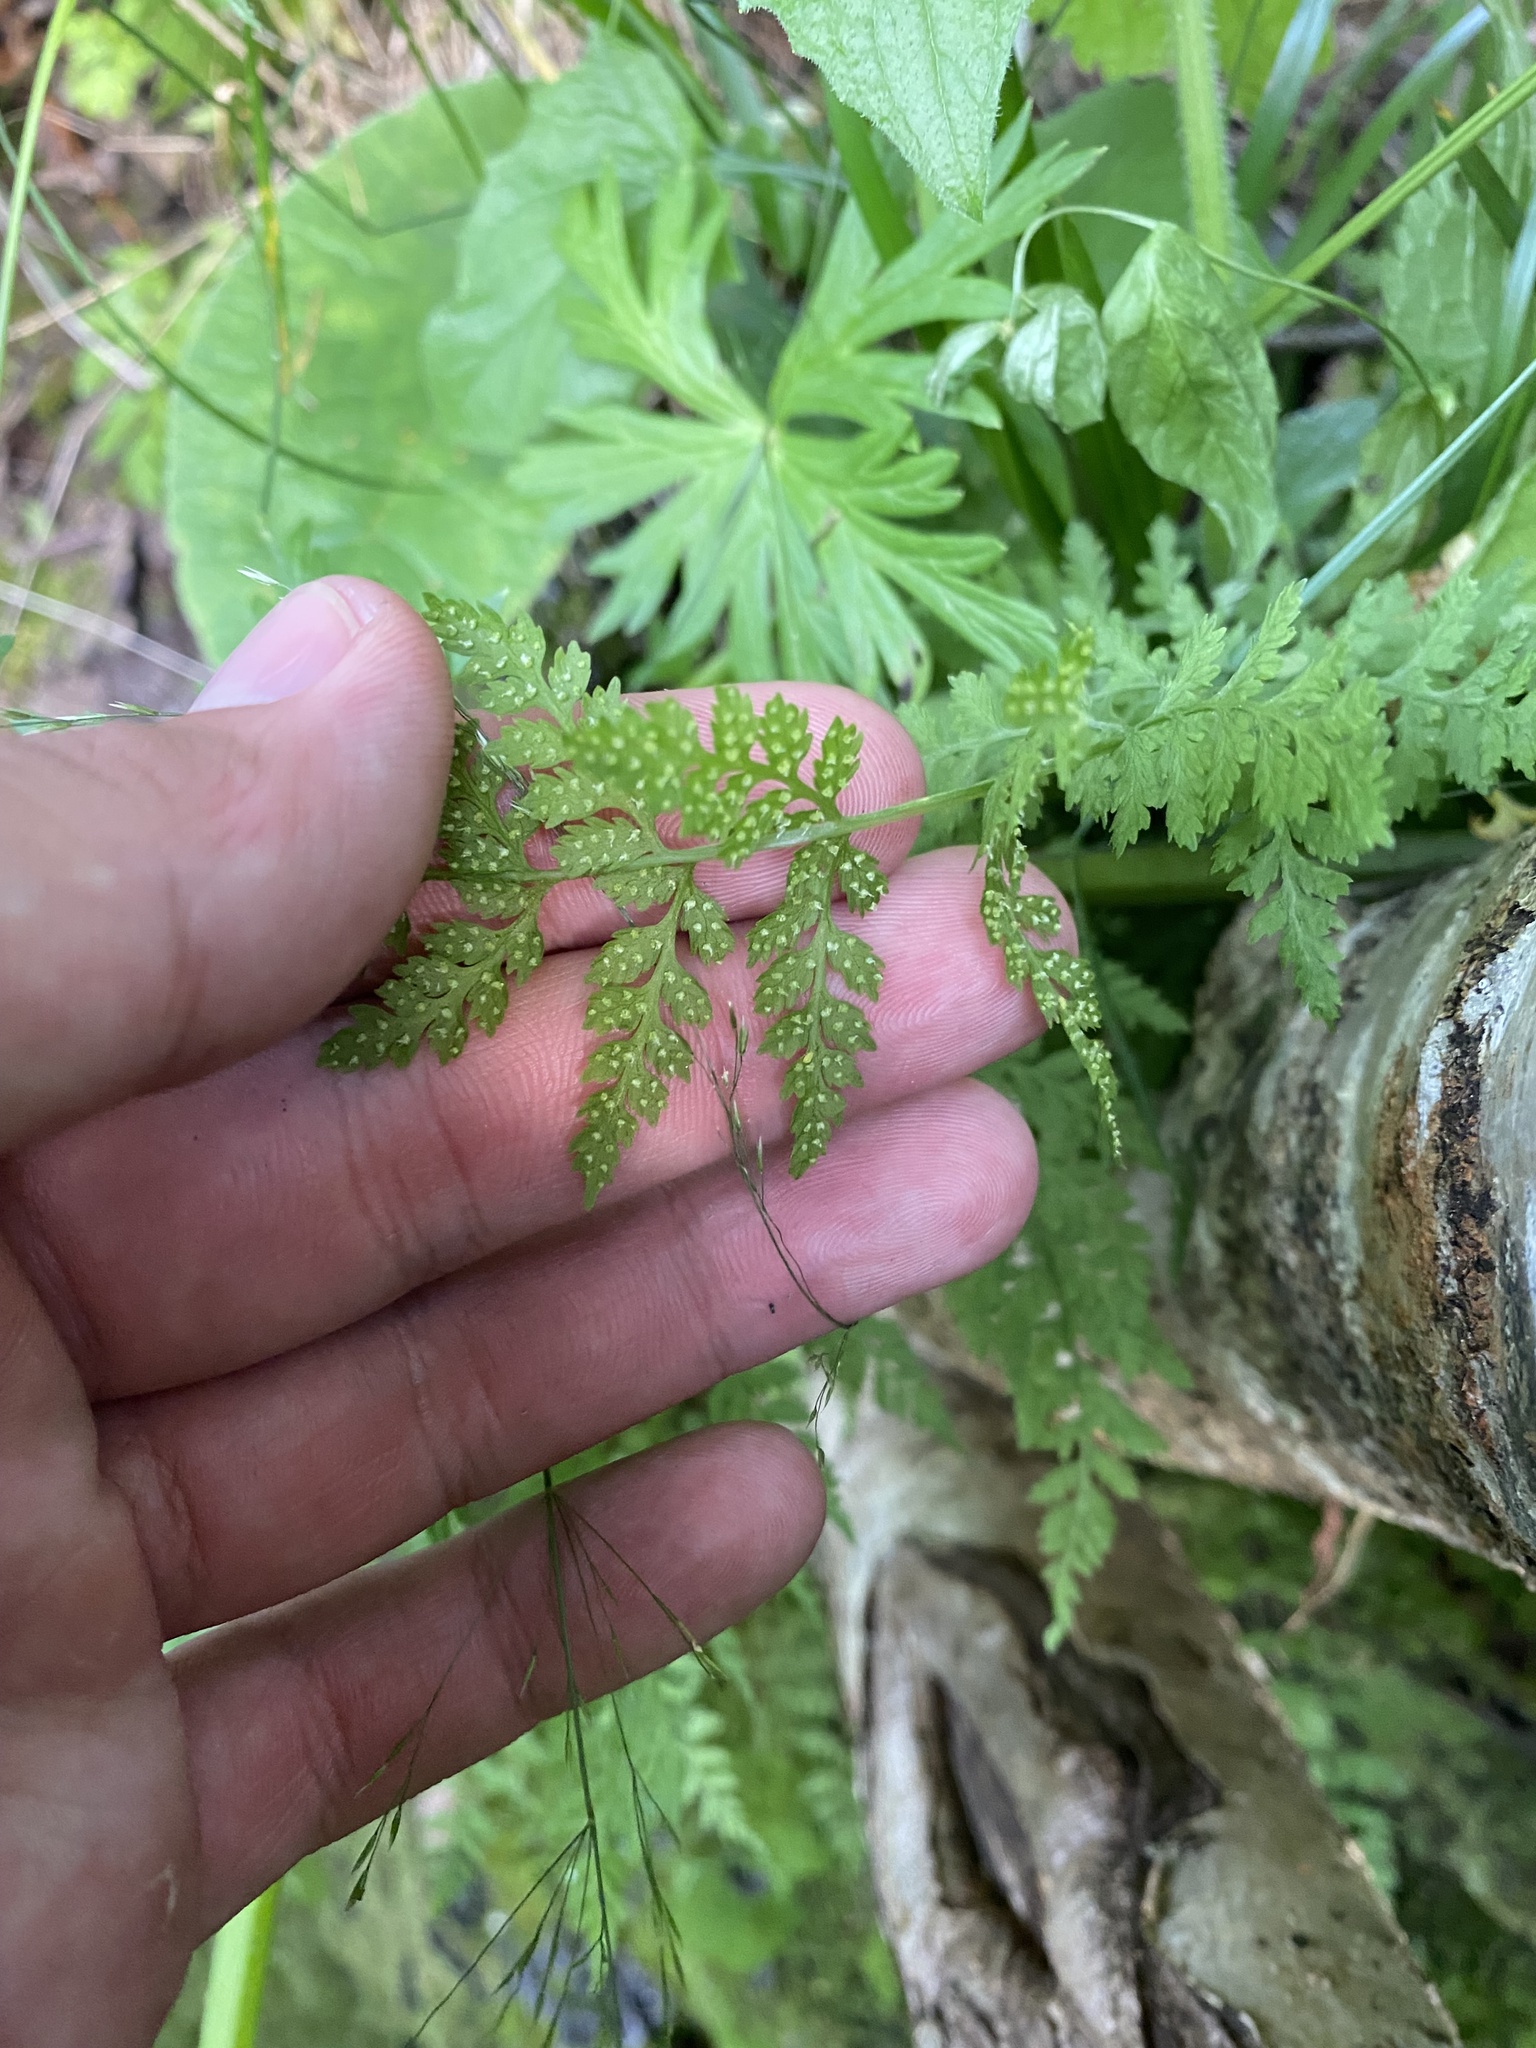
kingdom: Plantae
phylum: Tracheophyta
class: Polypodiopsida
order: Polypodiales
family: Cystopteridaceae
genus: Cystopteris
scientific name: Cystopteris fragilis
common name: Brittle bladder fern
